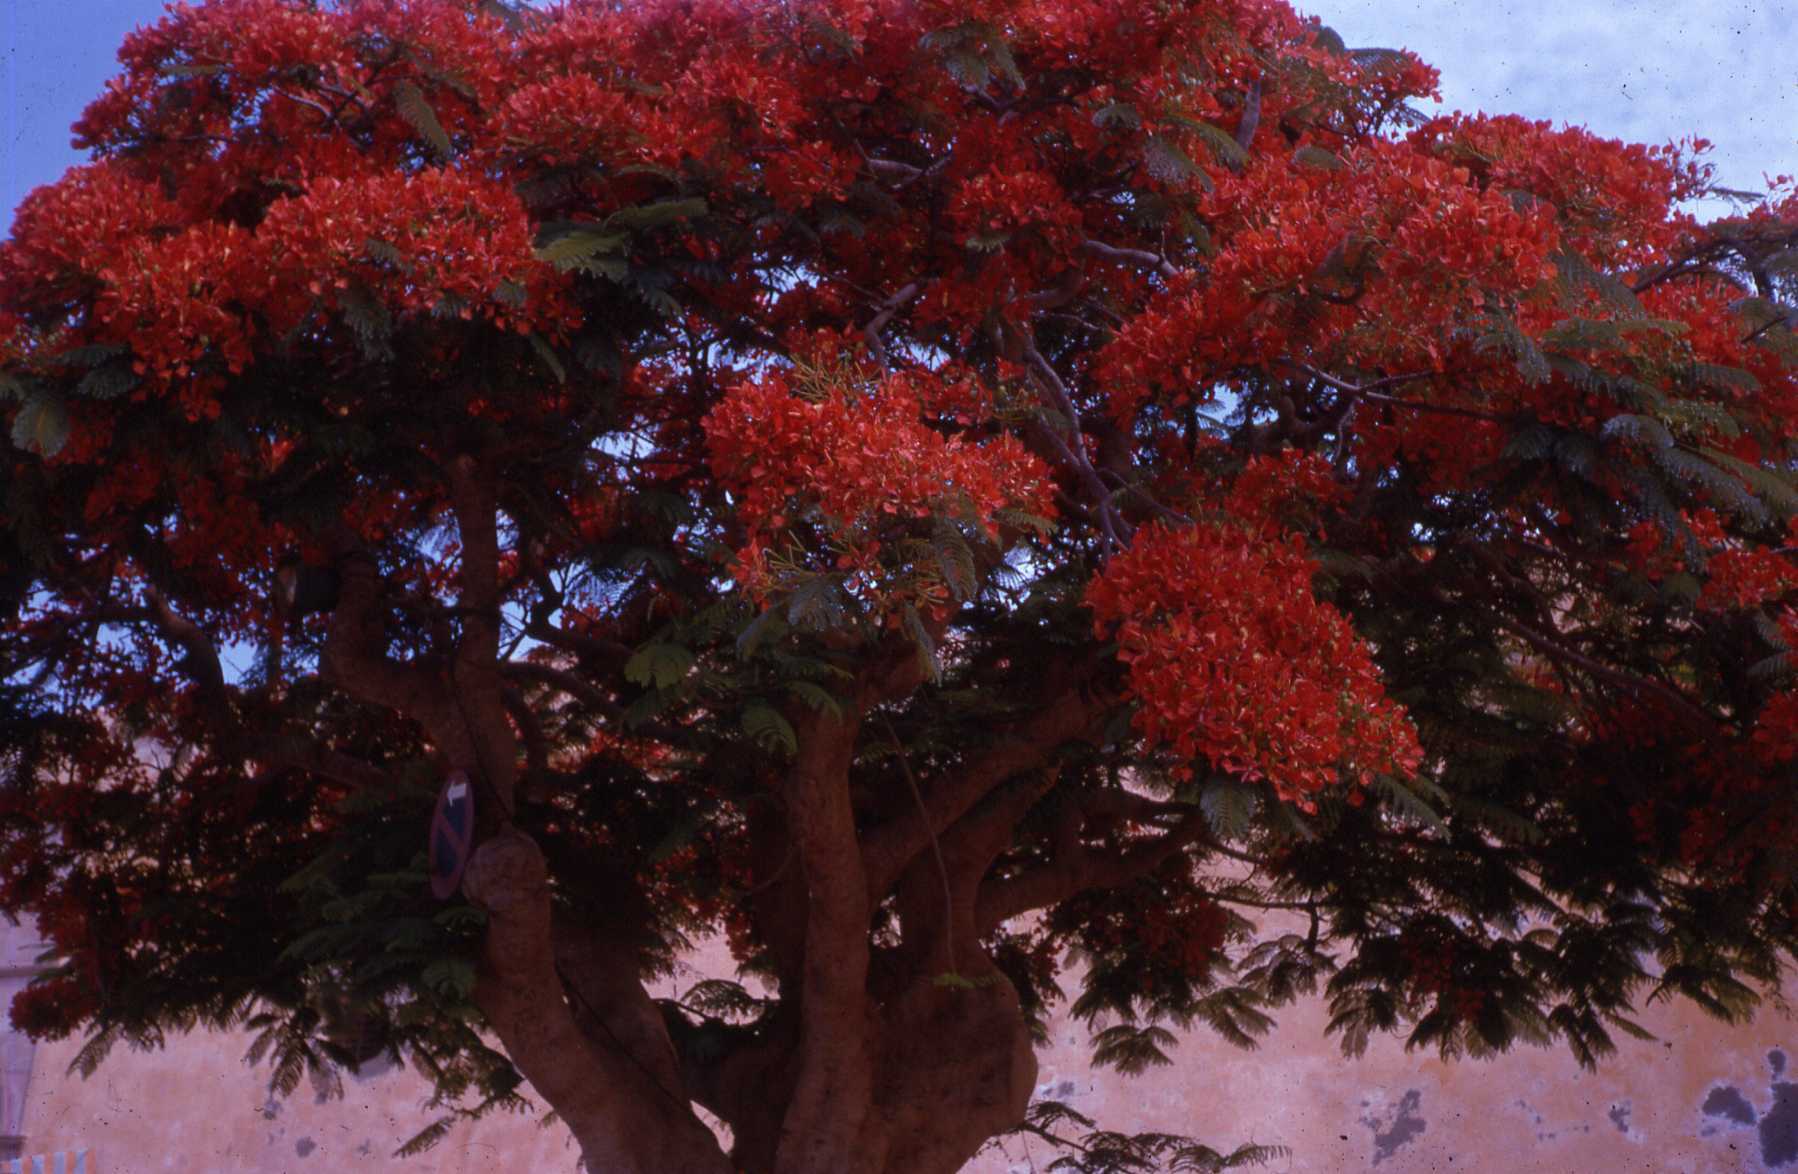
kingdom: Plantae
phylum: Tracheophyta
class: Magnoliopsida
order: Fabales
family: Fabaceae
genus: Delonix
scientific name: Delonix regia
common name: Royal poinciana
